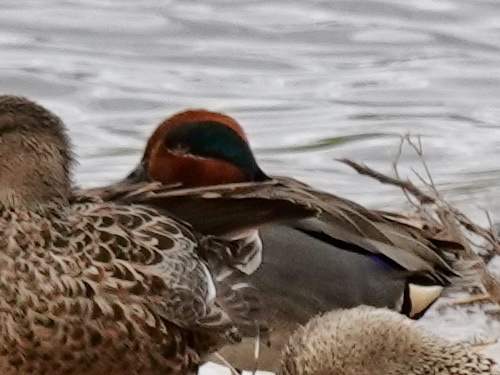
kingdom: Animalia
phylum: Chordata
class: Aves
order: Anseriformes
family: Anatidae
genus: Anas
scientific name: Anas crecca
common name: Eurasian teal
